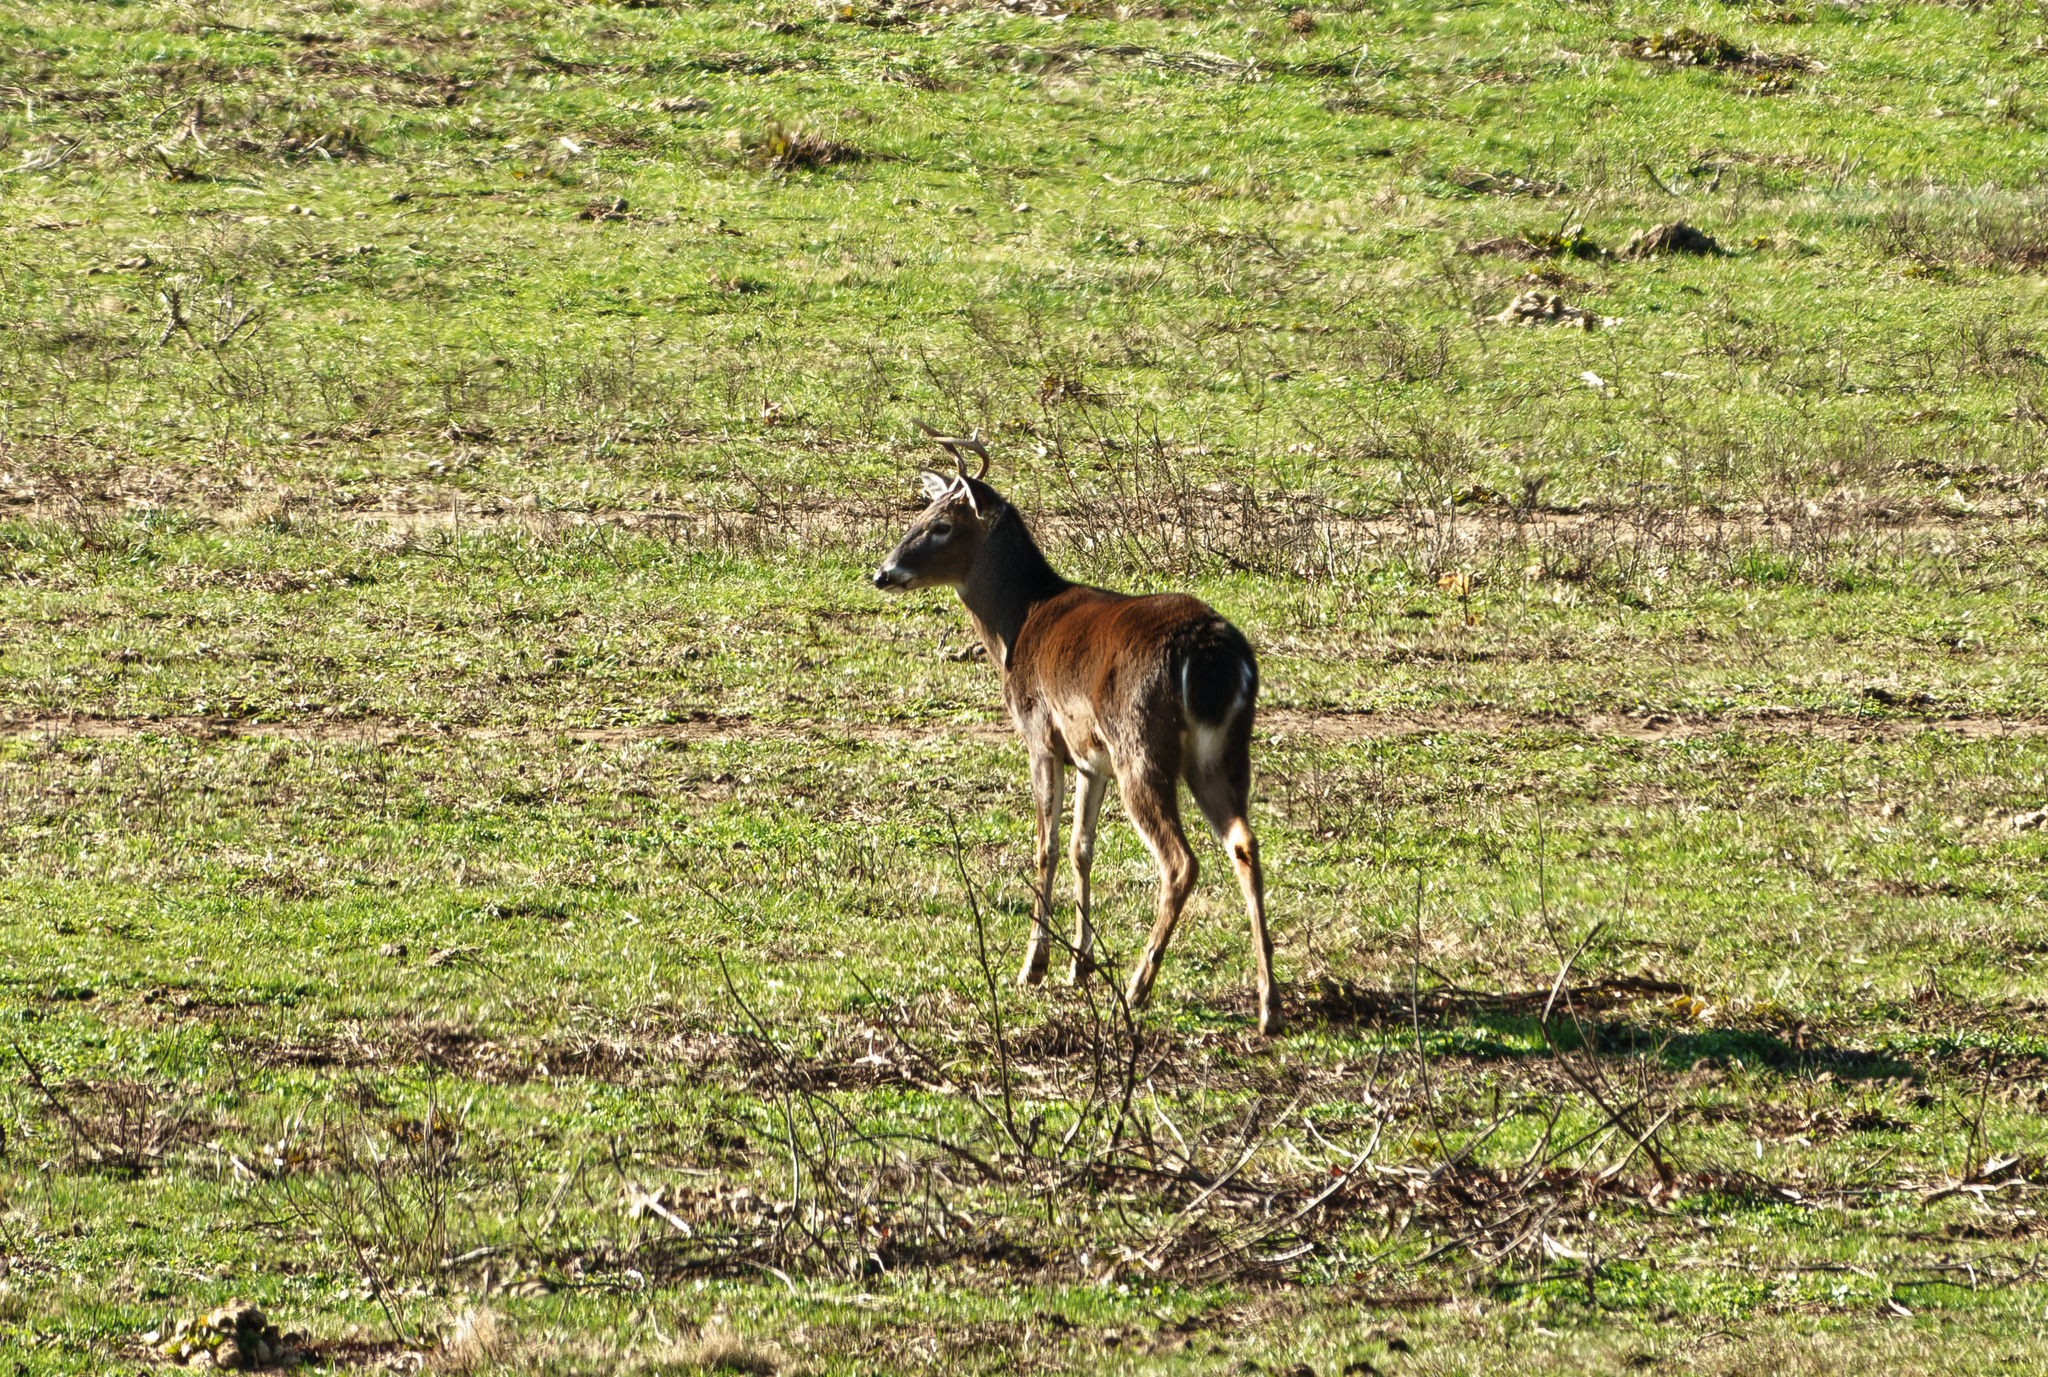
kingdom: Animalia
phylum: Chordata
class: Mammalia
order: Artiodactyla
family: Cervidae
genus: Odocoileus
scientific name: Odocoileus virginianus
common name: White-tailed deer
